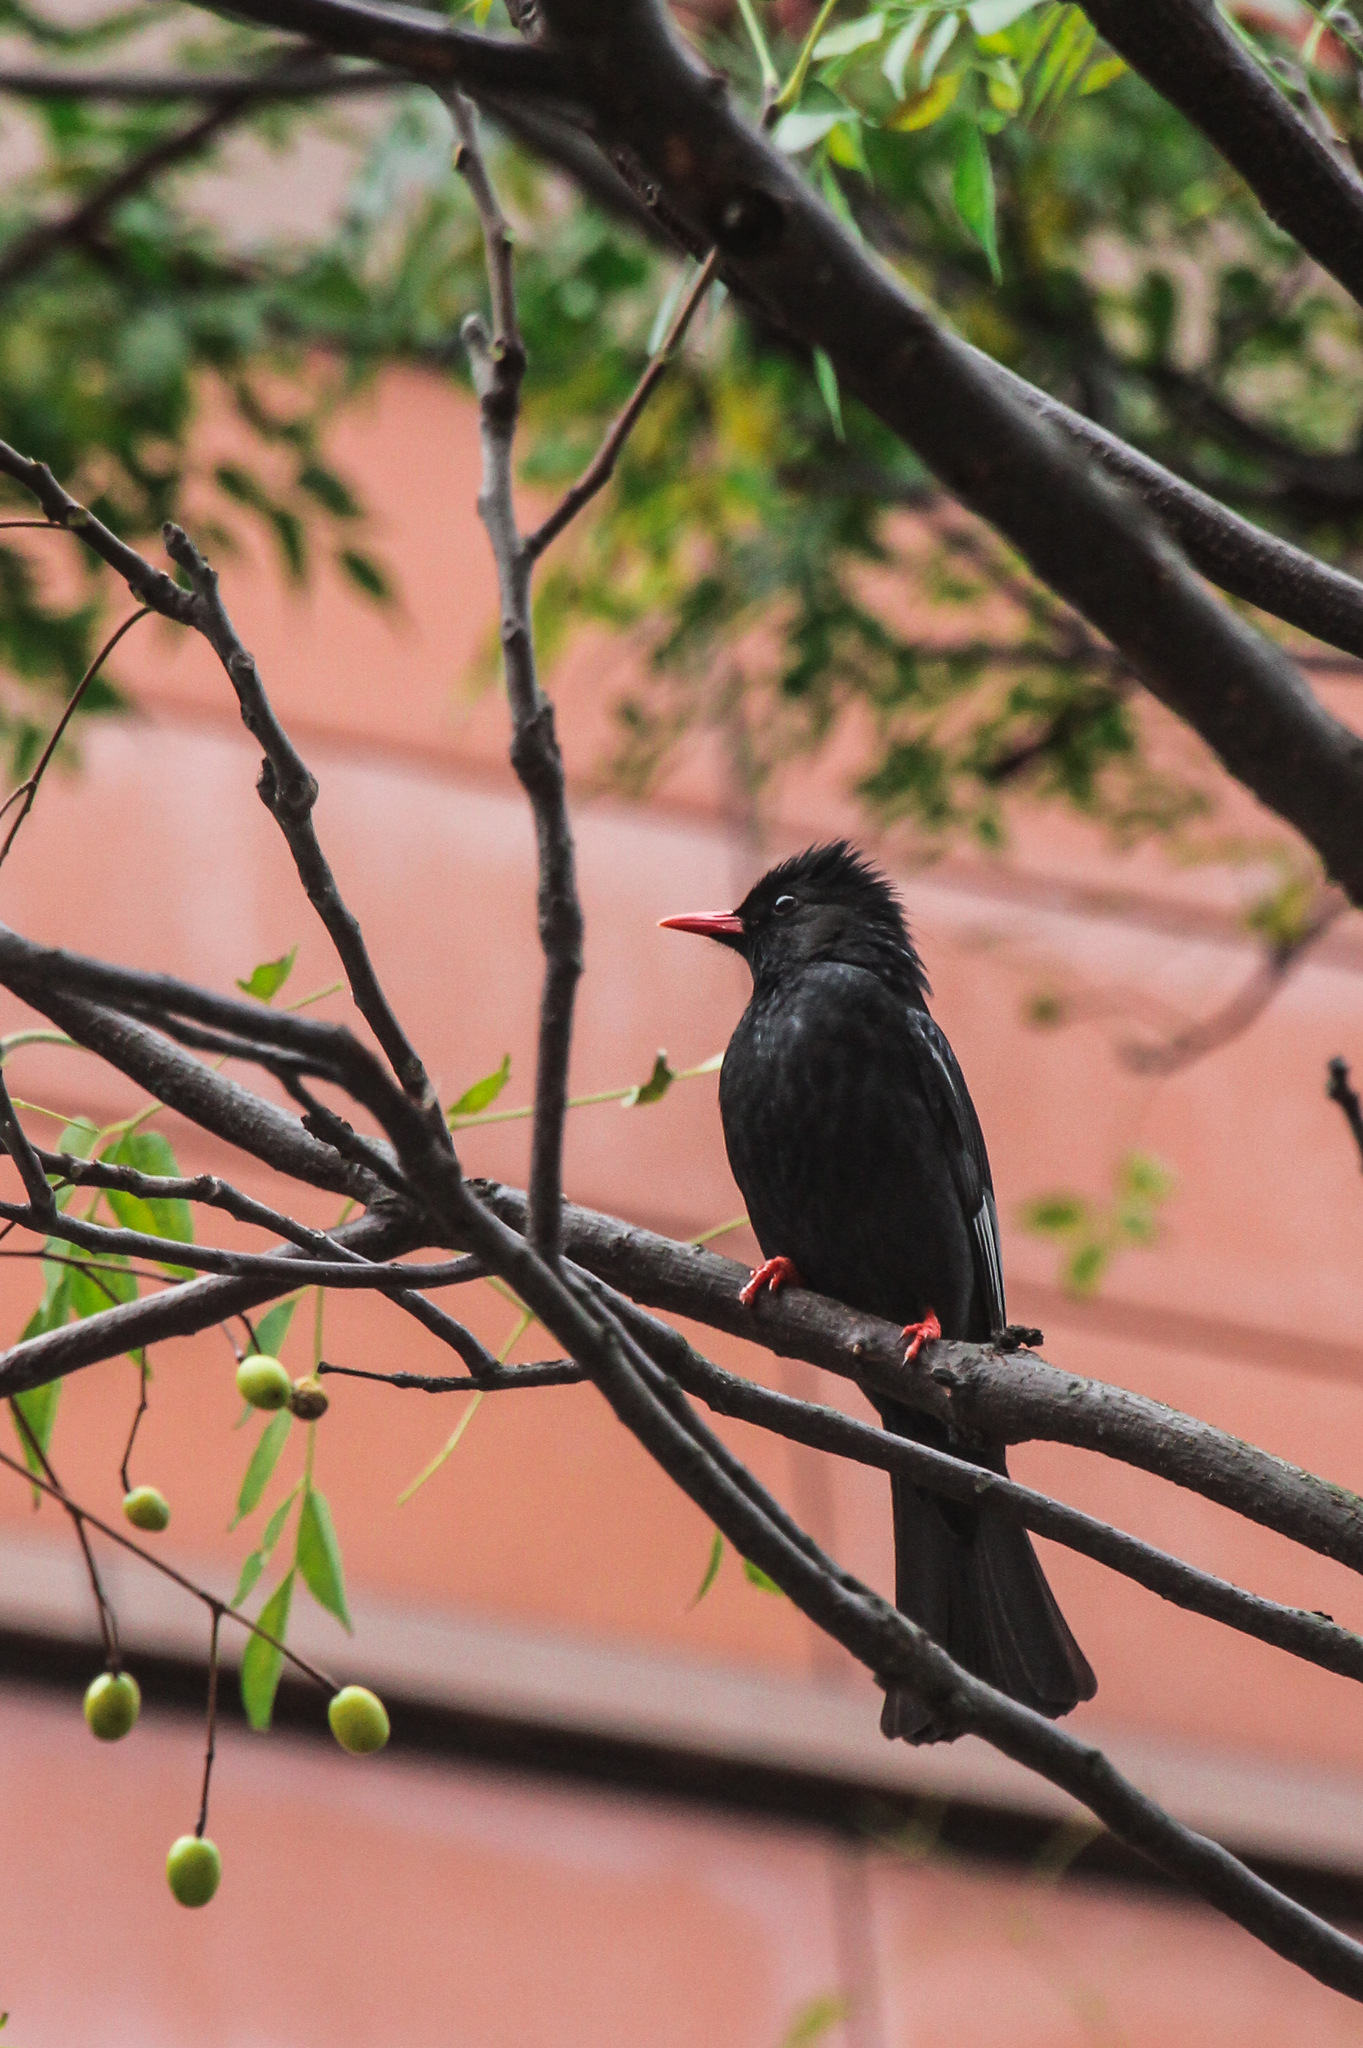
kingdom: Animalia
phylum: Chordata
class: Aves
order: Passeriformes
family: Pycnonotidae
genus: Hypsipetes
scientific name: Hypsipetes leucocephalus
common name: Black bulbul
